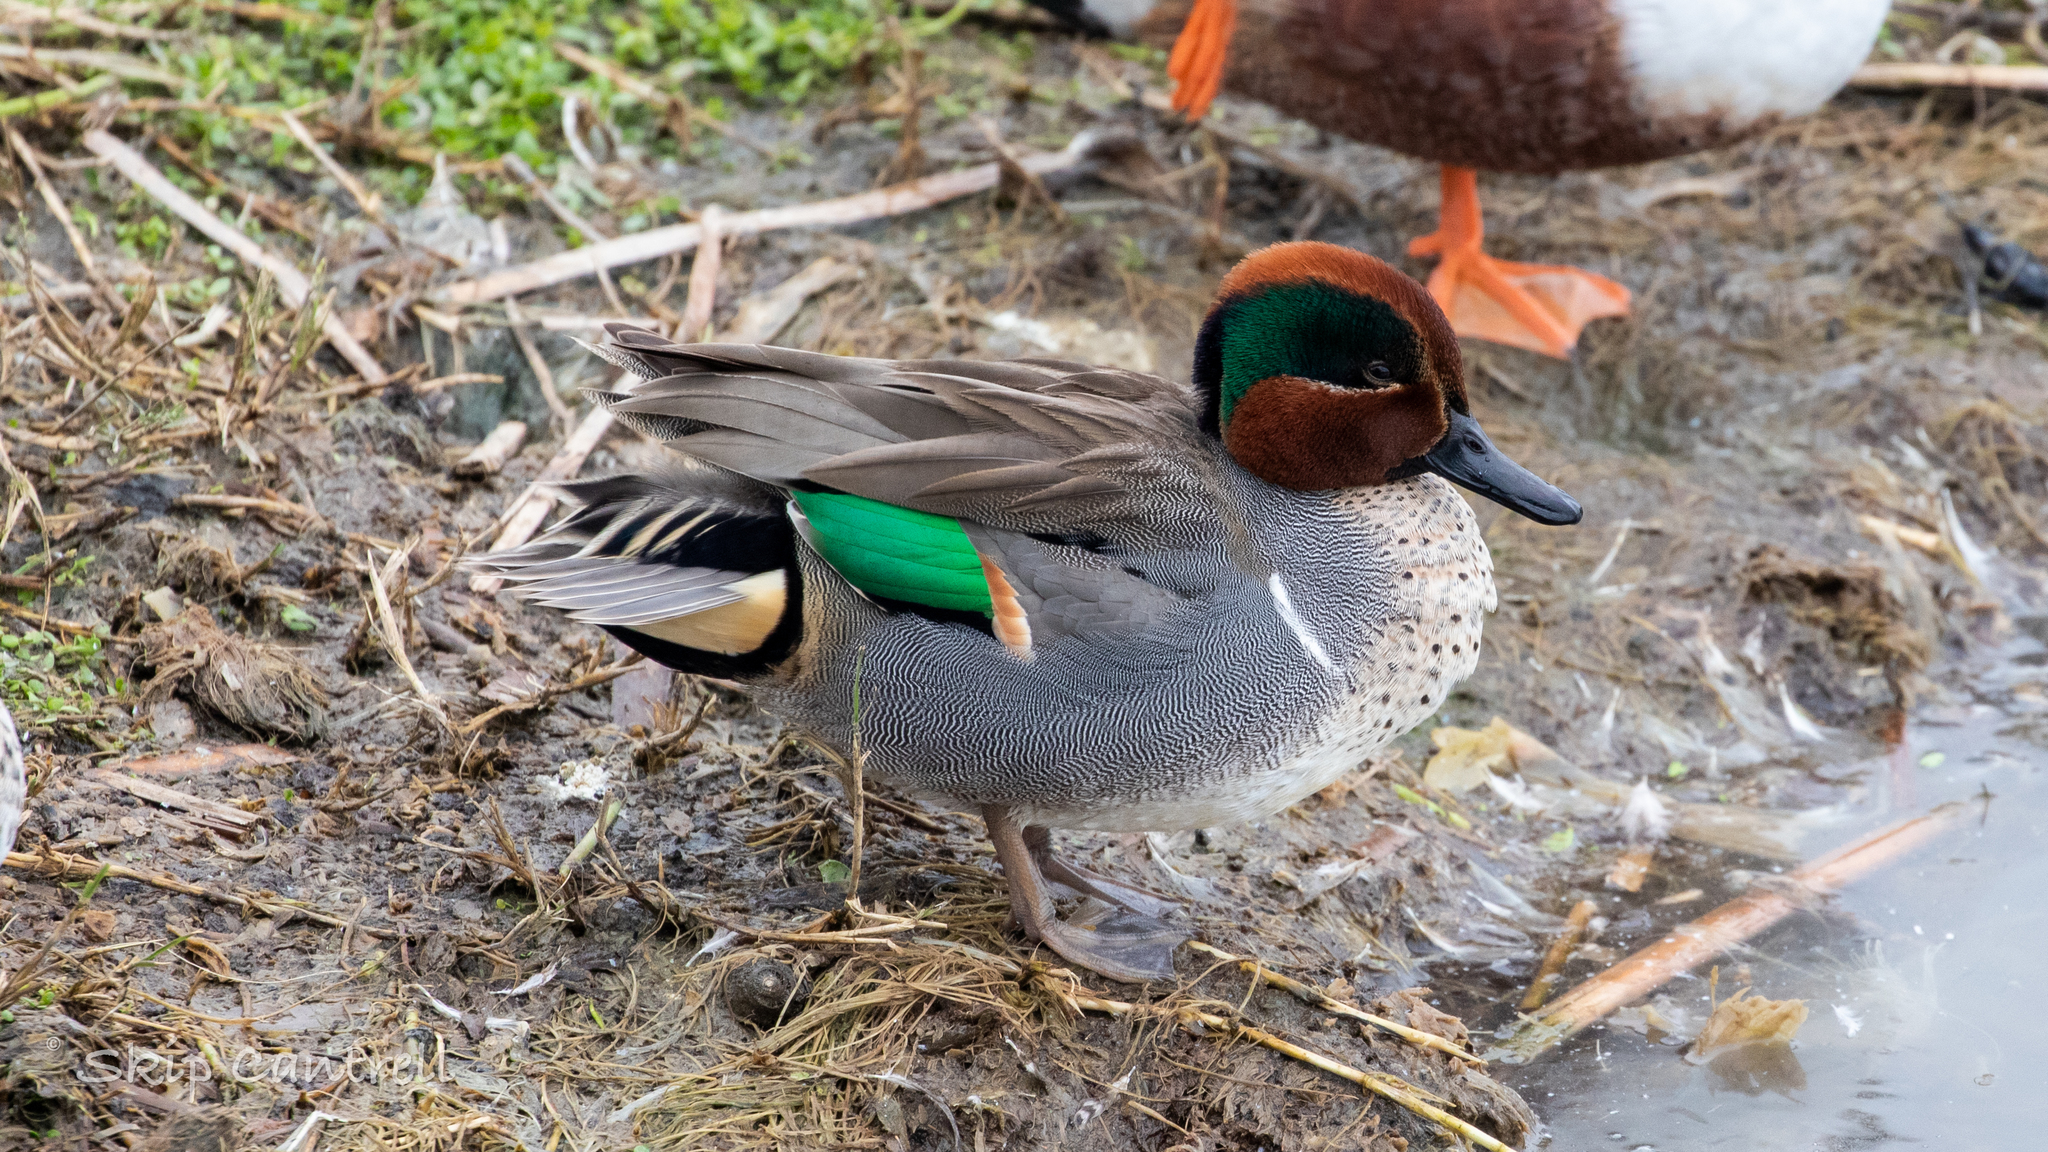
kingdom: Animalia
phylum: Chordata
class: Aves
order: Anseriformes
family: Anatidae
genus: Anas
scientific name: Anas crecca
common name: Eurasian teal
